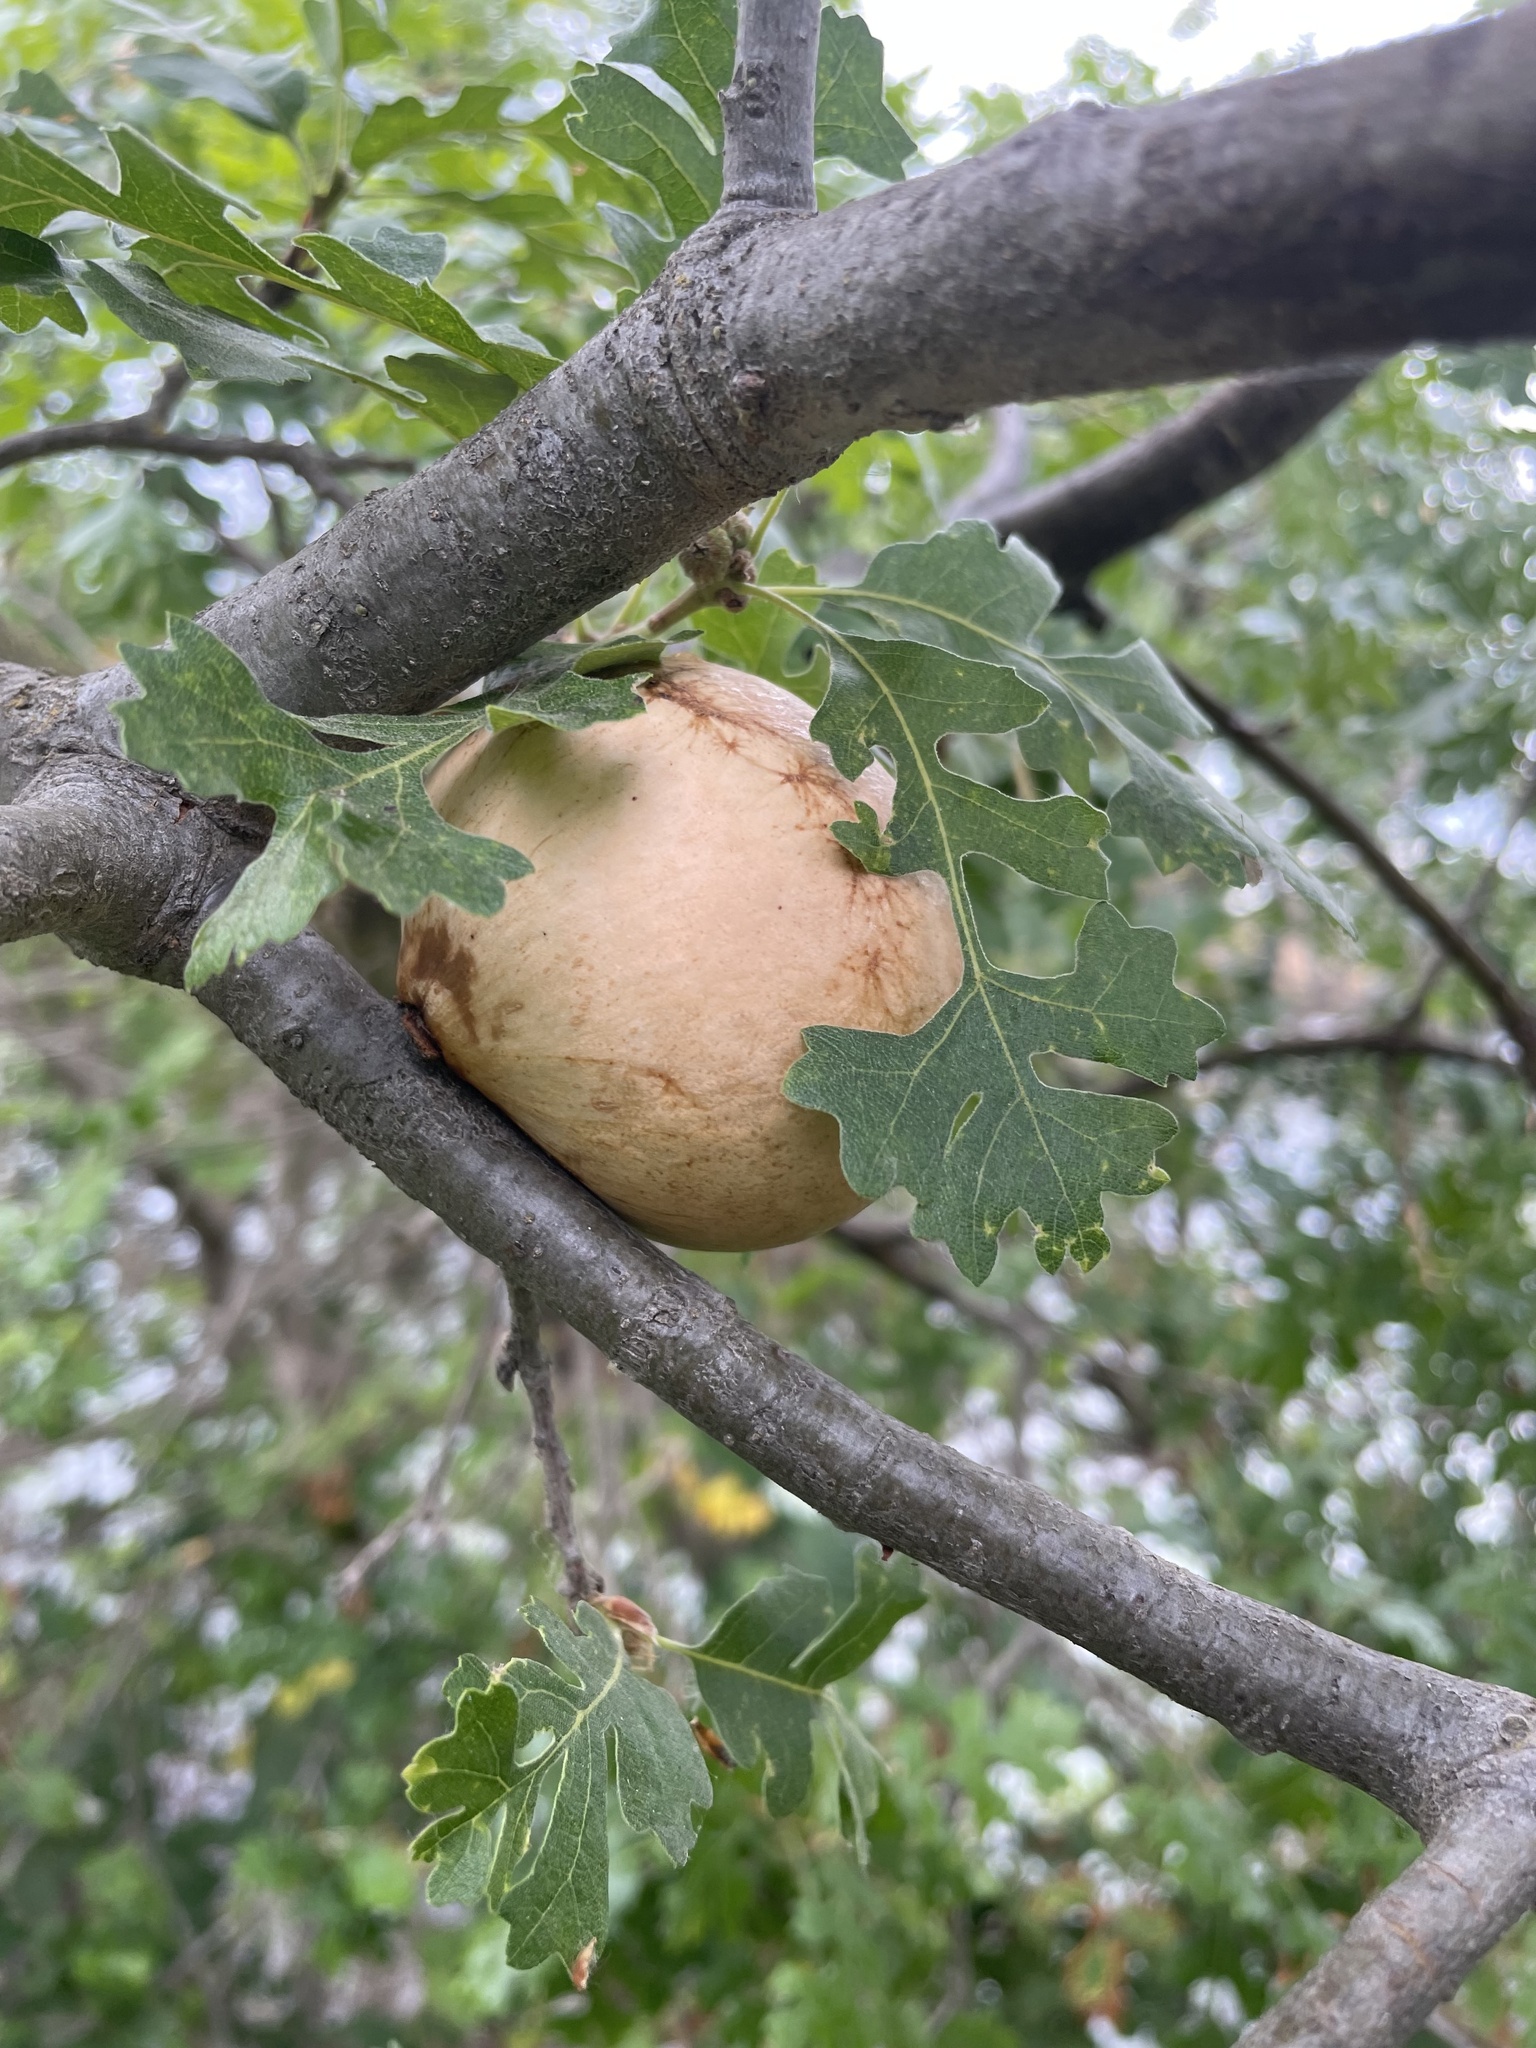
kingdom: Animalia
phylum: Arthropoda
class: Insecta
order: Hymenoptera
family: Cynipidae
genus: Andricus
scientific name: Andricus quercuscalifornicus
